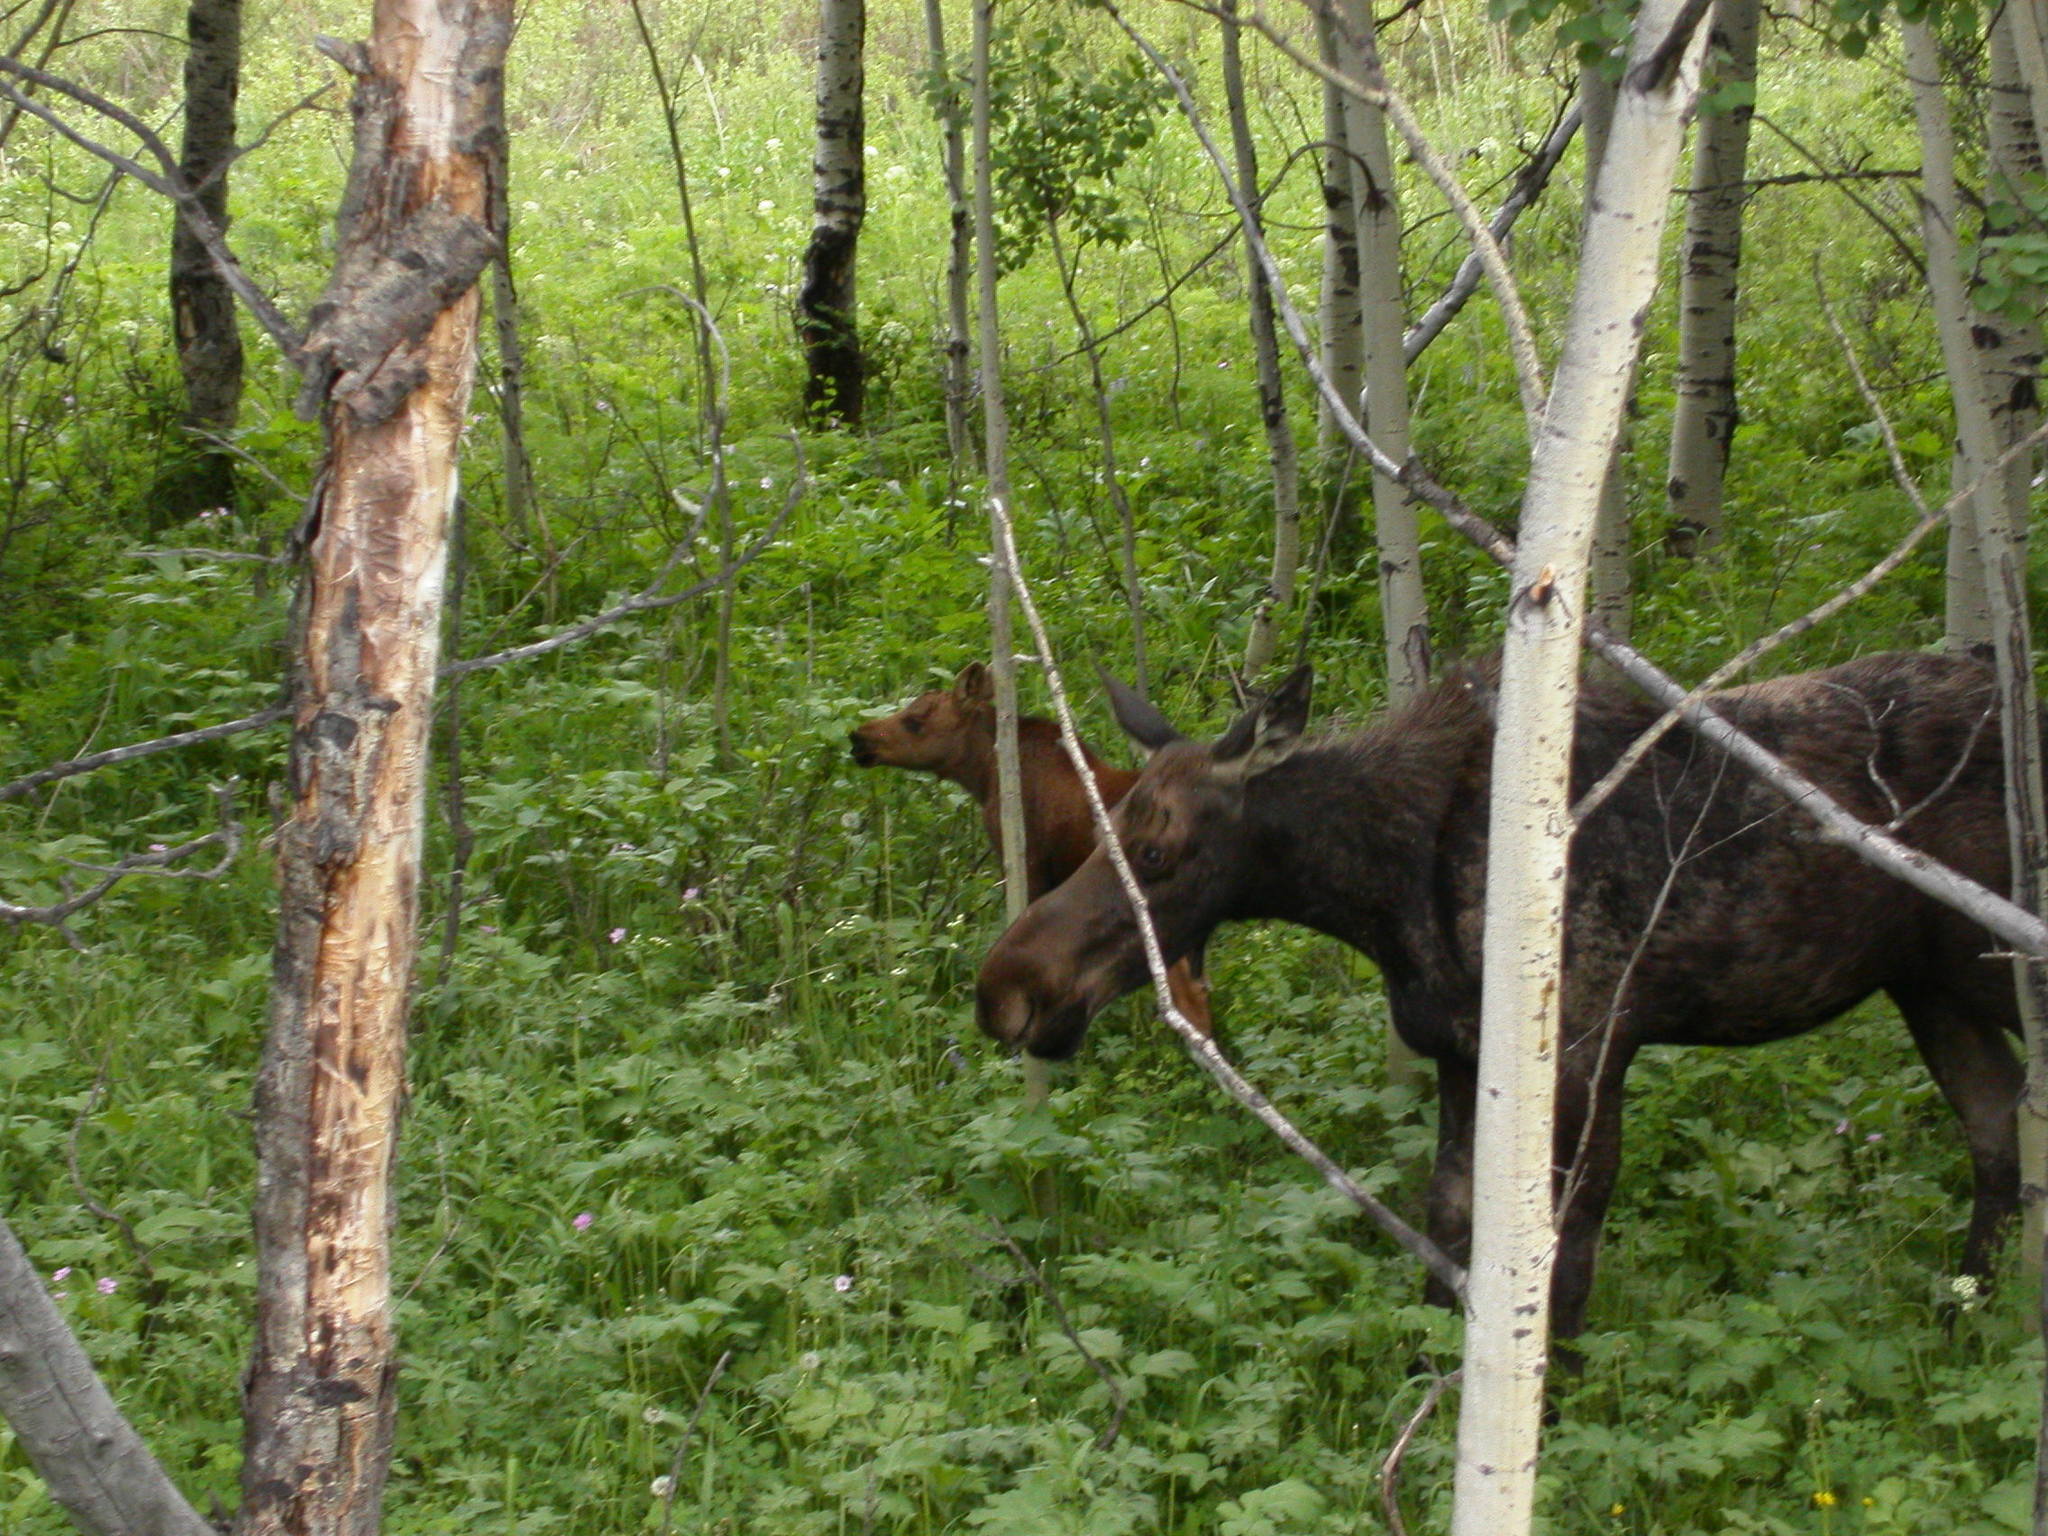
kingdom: Animalia
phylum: Chordata
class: Mammalia
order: Artiodactyla
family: Cervidae
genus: Alces
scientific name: Alces alces
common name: Moose
